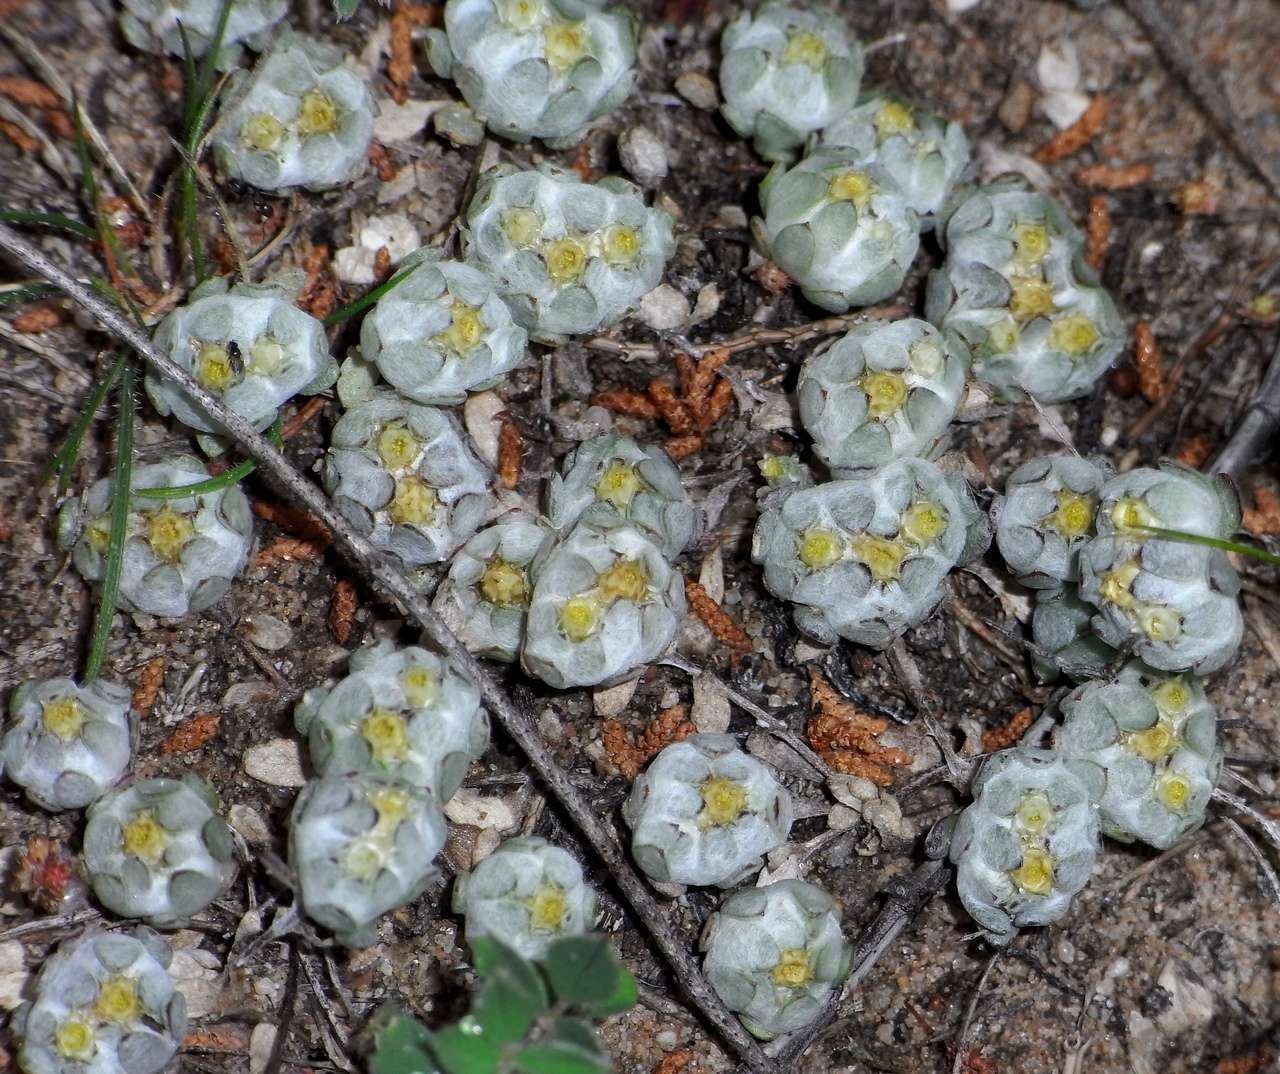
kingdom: Plantae
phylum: Tracheophyta
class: Magnoliopsida
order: Asterales
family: Asteraceae
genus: Actinobole
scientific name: Actinobole uliginosum
